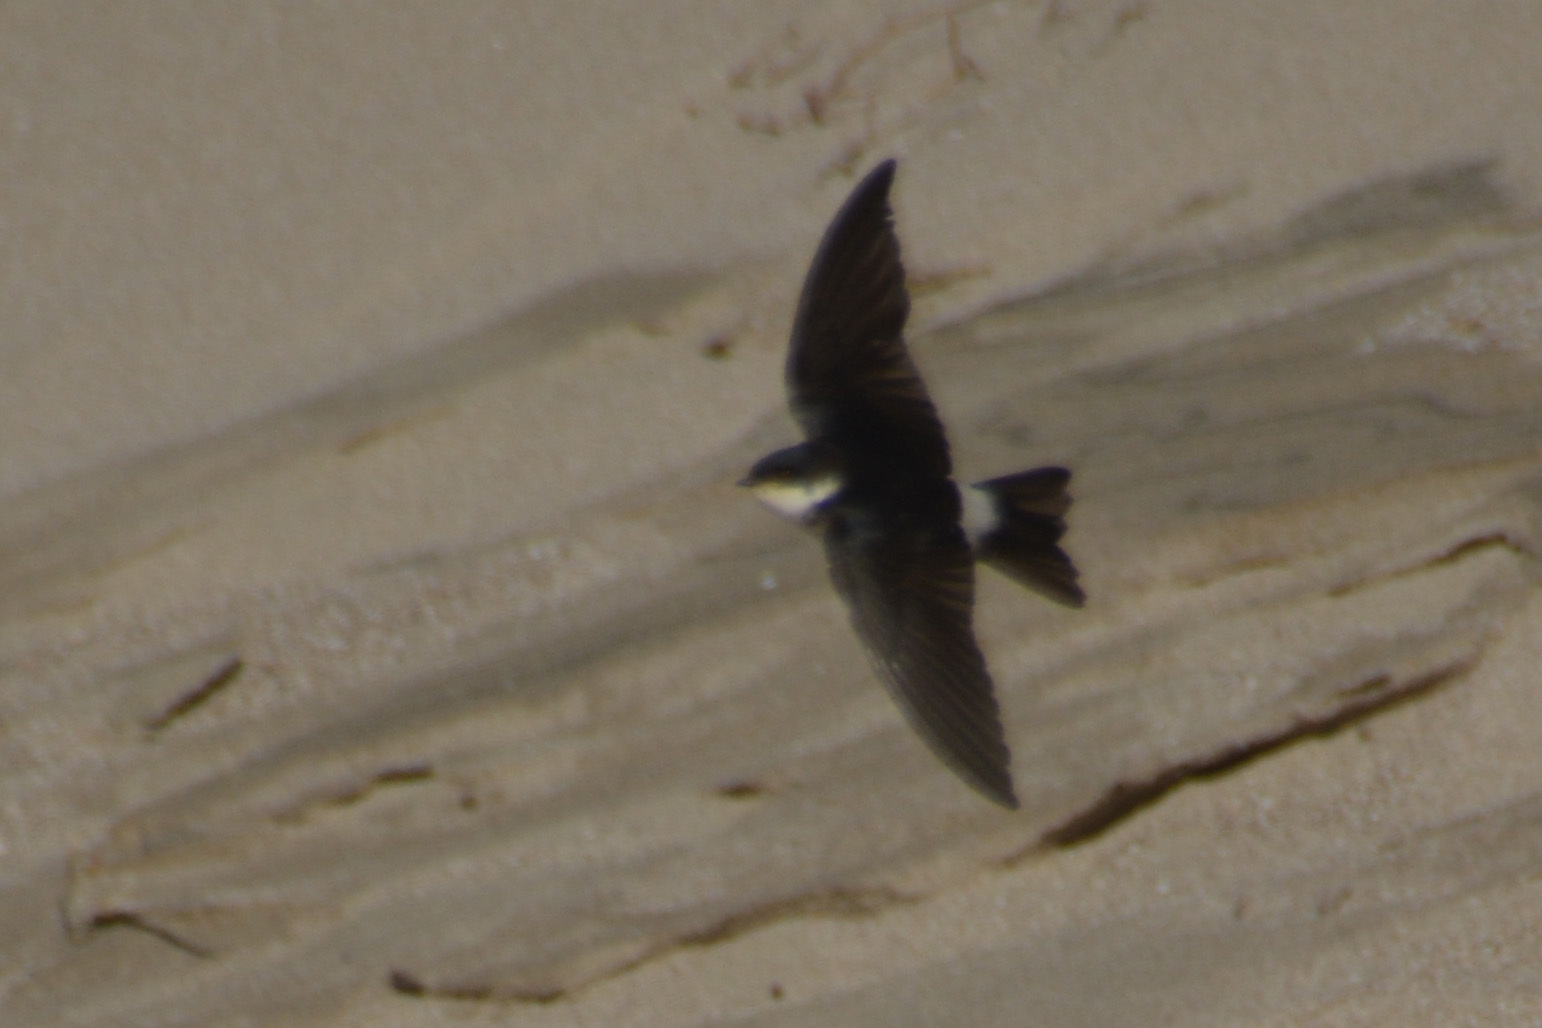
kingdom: Animalia
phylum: Chordata
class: Aves
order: Passeriformes
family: Hirundinidae
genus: Tachycineta
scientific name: Tachycineta leucopyga
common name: Chilean swallow
